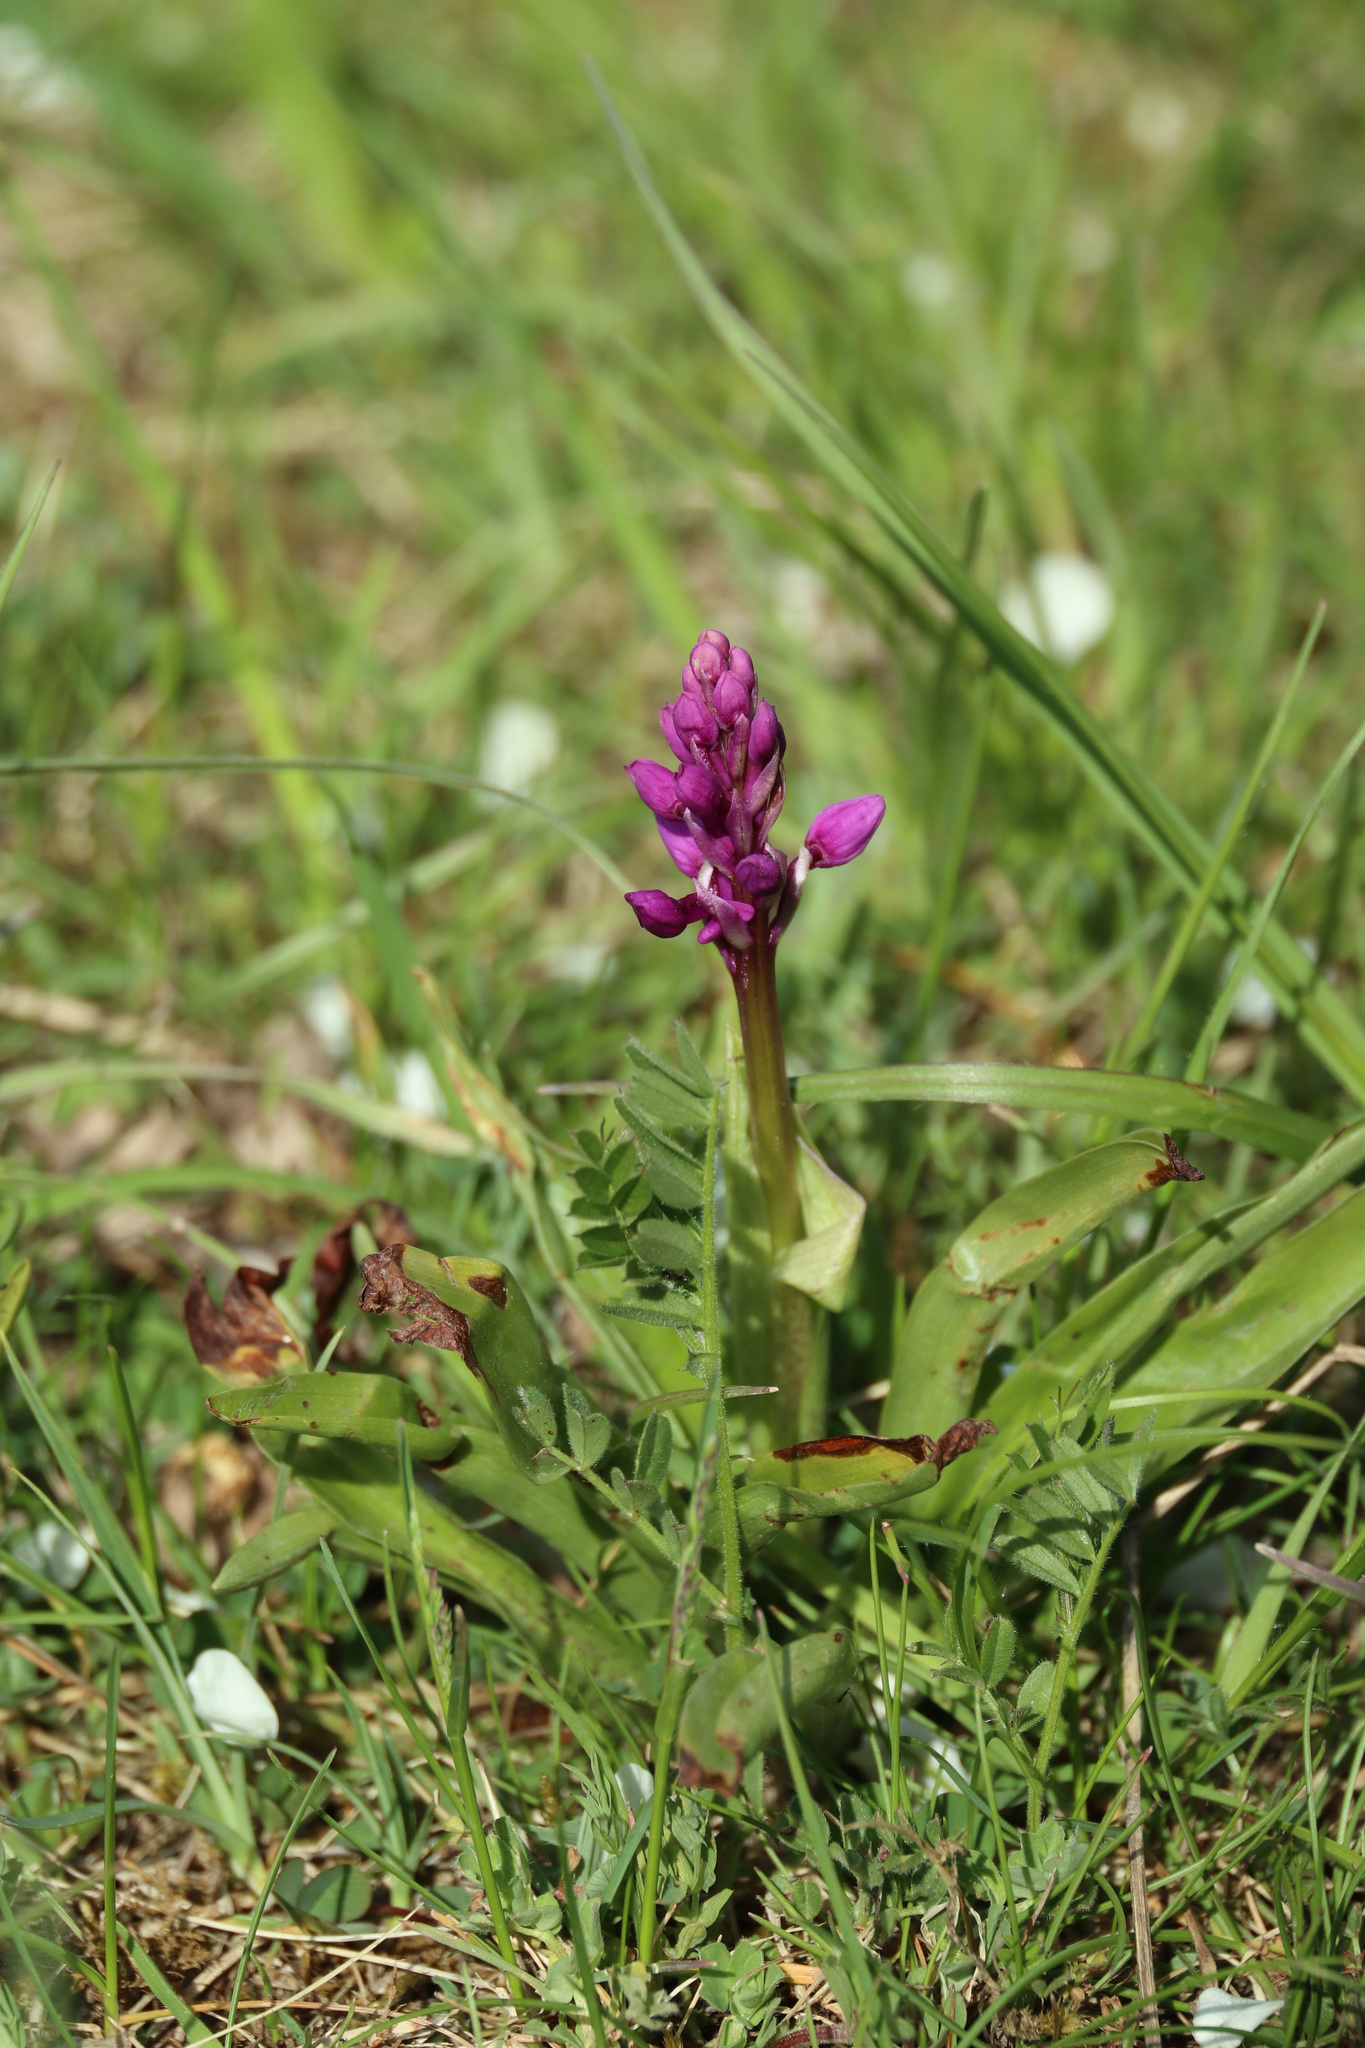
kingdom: Plantae
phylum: Tracheophyta
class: Liliopsida
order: Asparagales
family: Orchidaceae
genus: Orchis
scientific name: Orchis mascula
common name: Early-purple orchid
